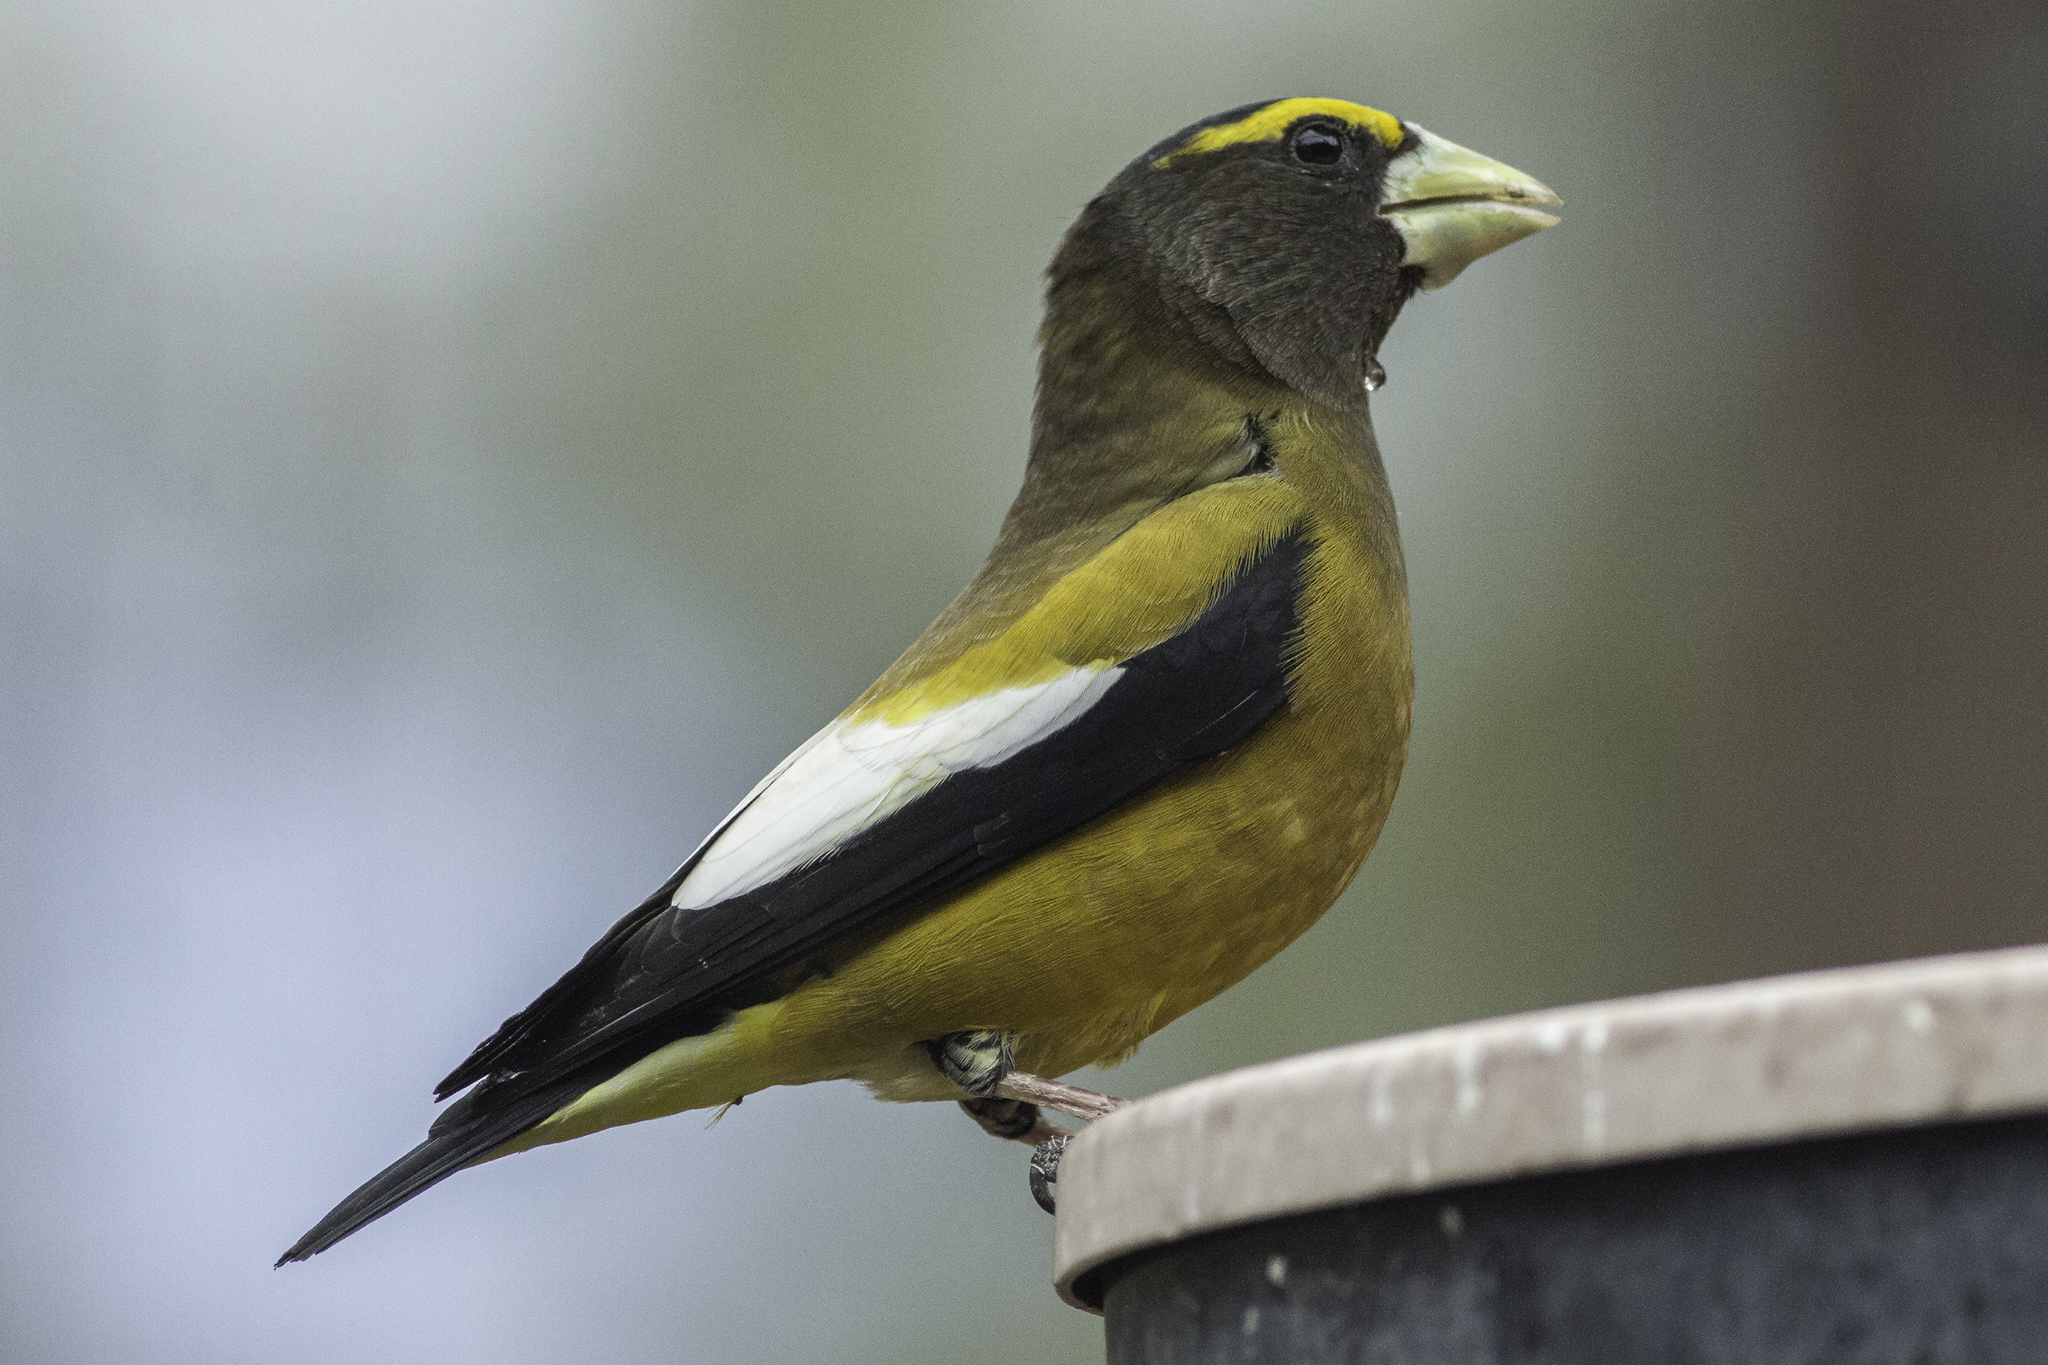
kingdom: Animalia
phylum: Chordata
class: Aves
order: Passeriformes
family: Fringillidae
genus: Hesperiphona
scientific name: Hesperiphona vespertina
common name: Evening grosbeak
